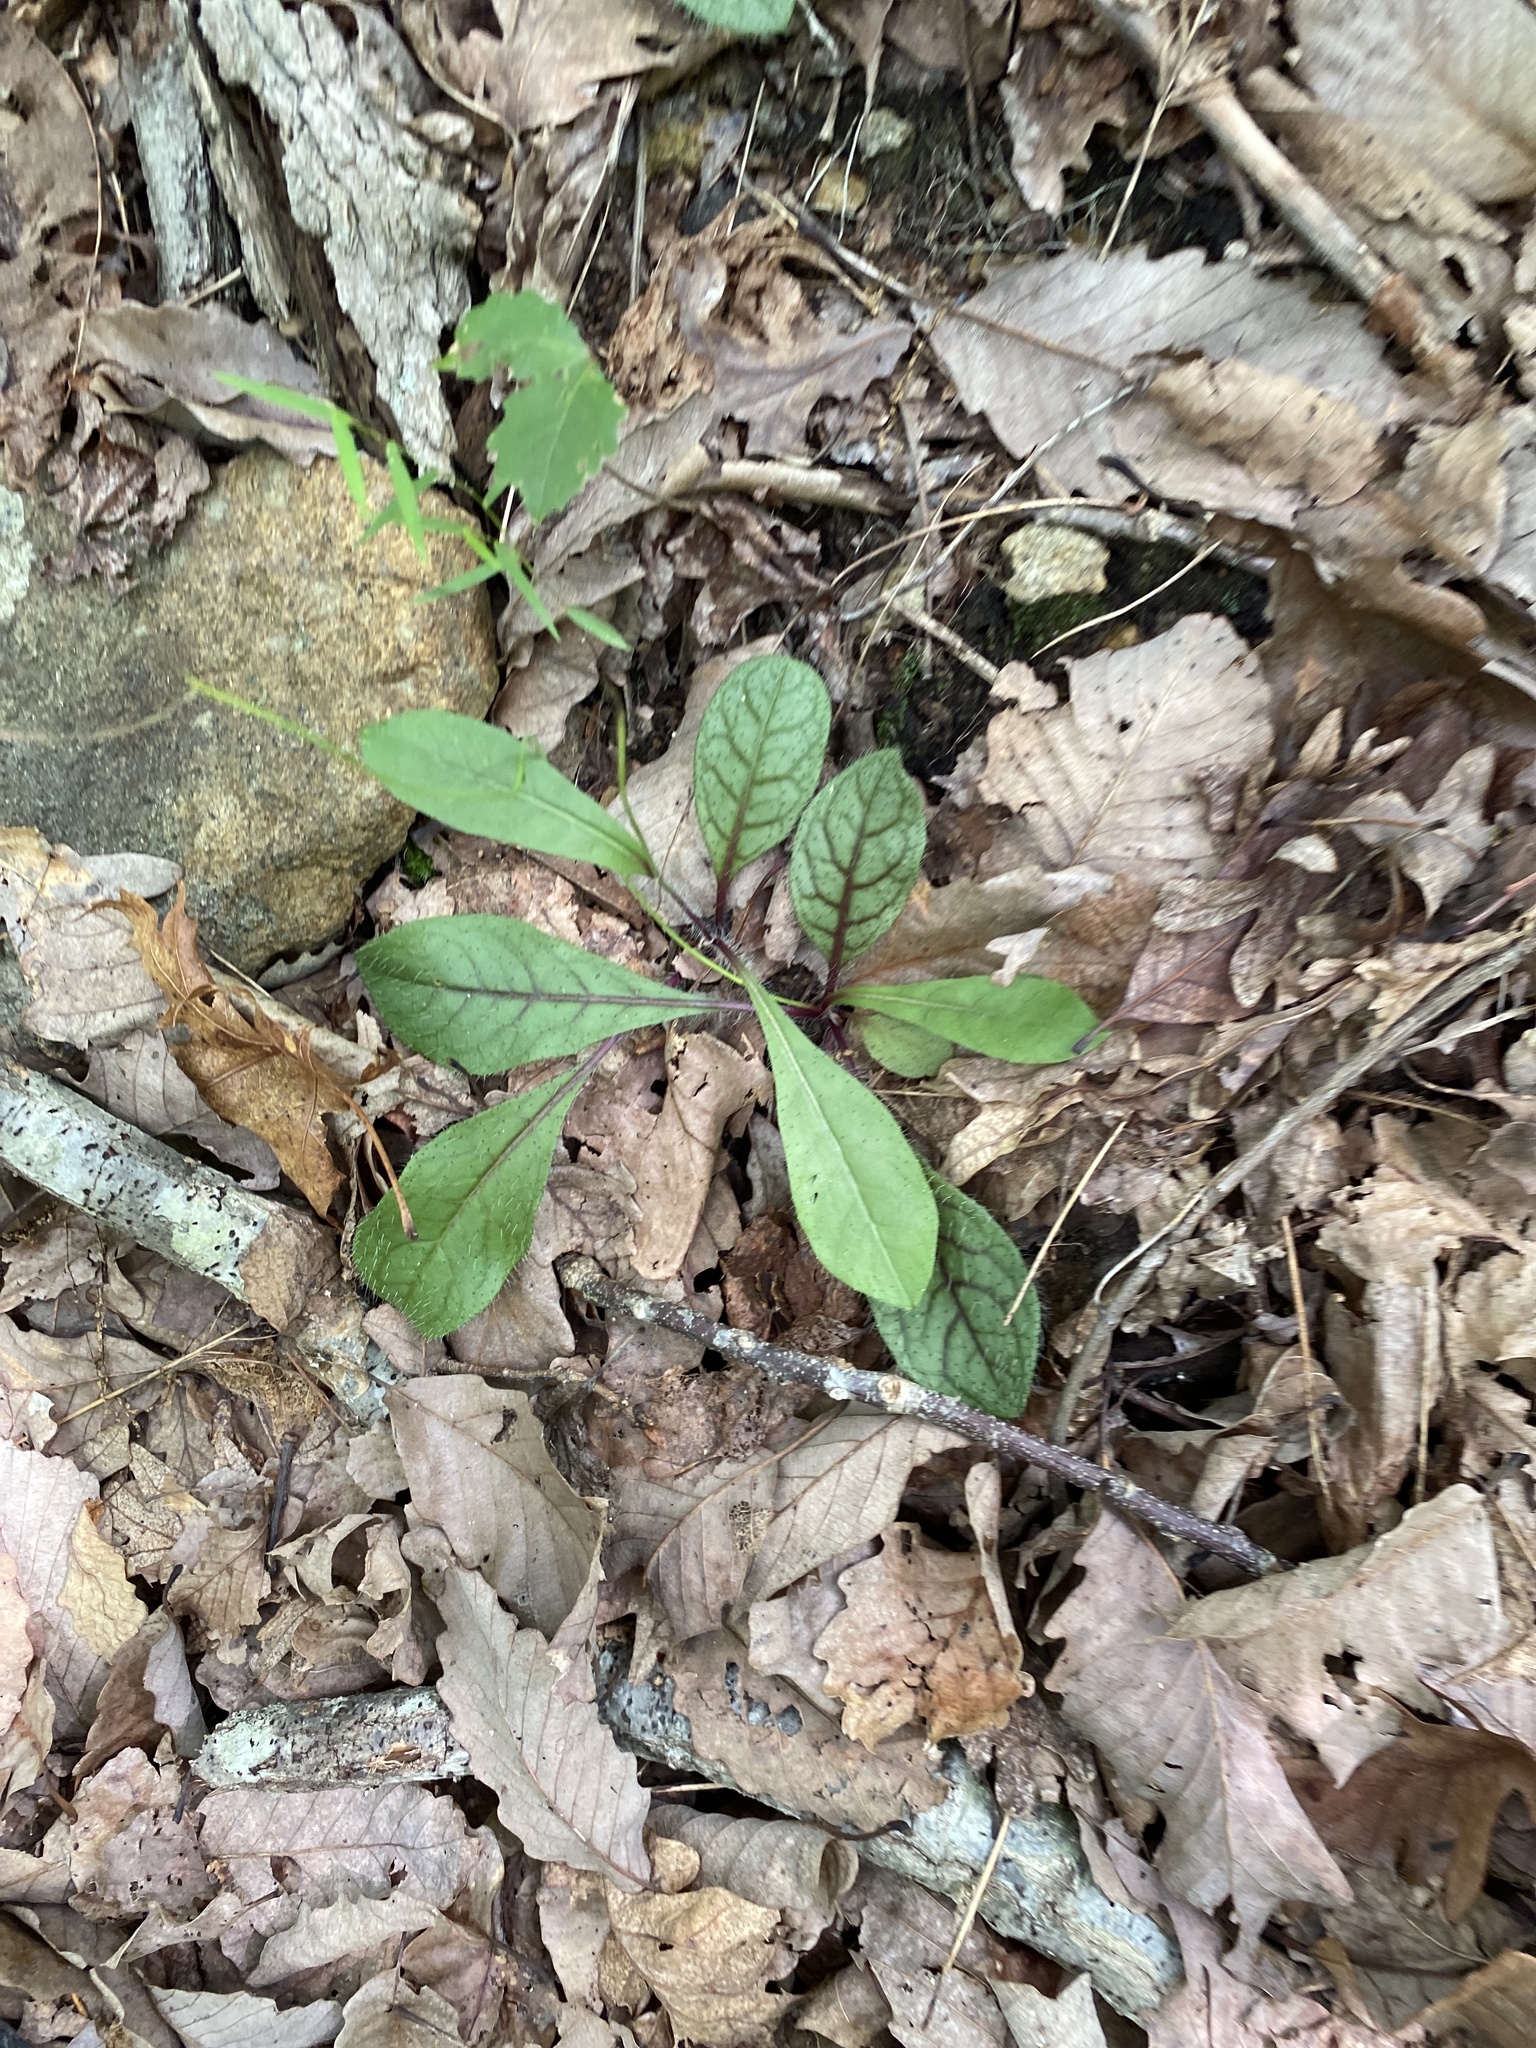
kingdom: Plantae
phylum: Tracheophyta
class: Magnoliopsida
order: Asterales
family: Asteraceae
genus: Hieracium
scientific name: Hieracium venosum
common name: Rattlesnake hawkweed
